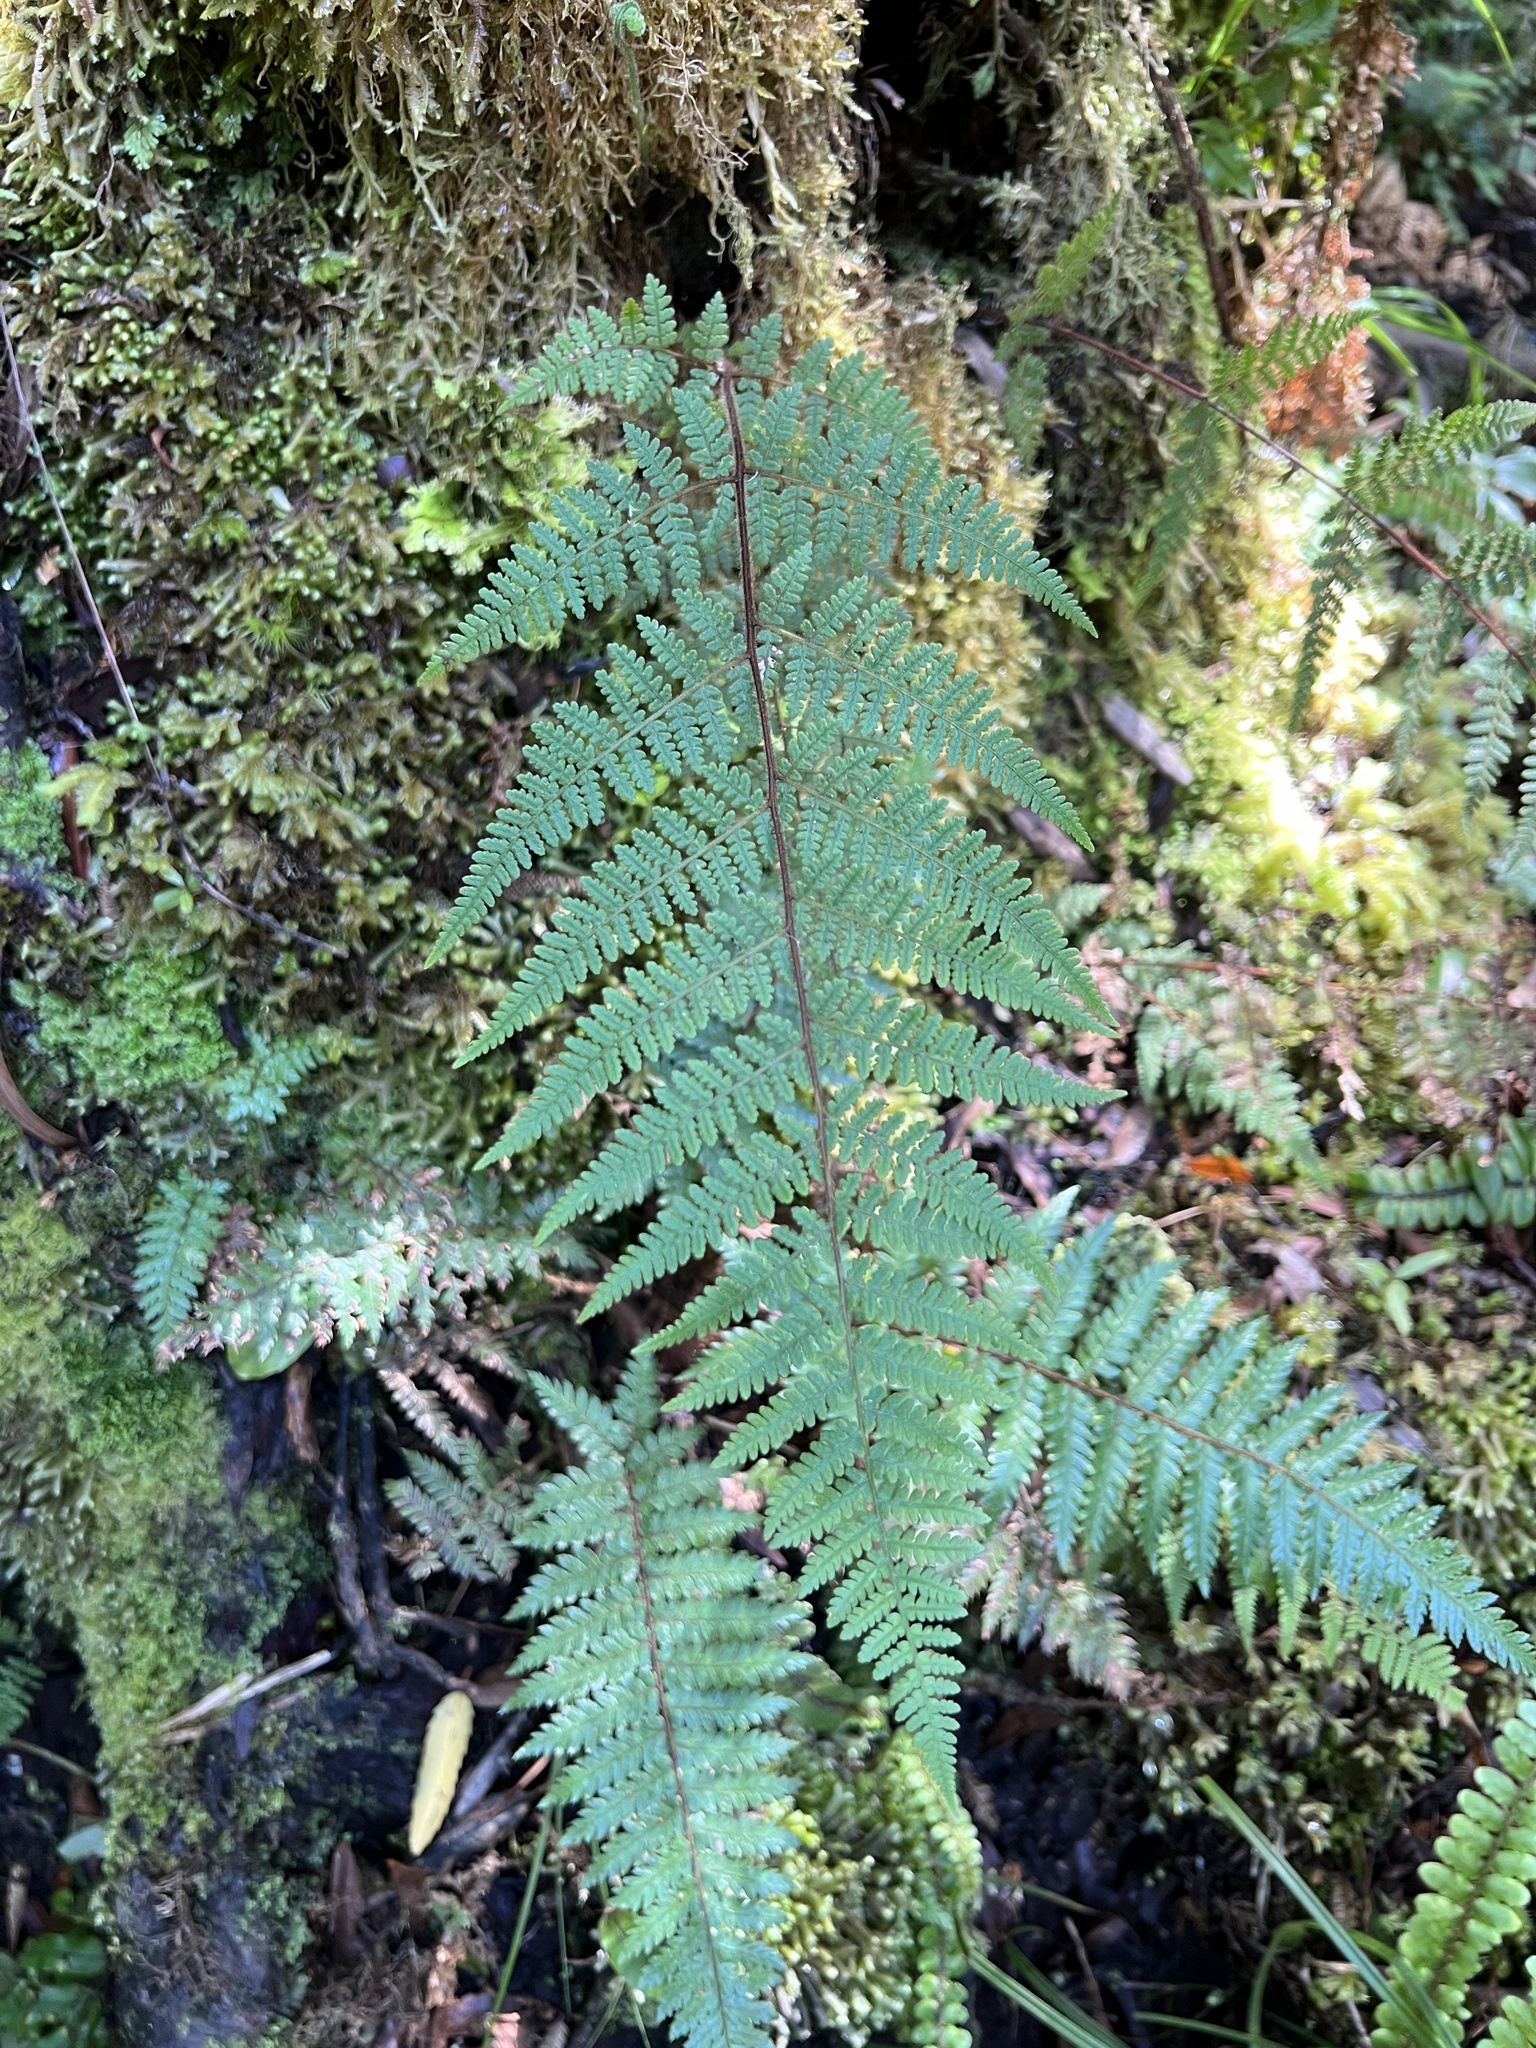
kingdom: Plantae
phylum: Tracheophyta
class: Polypodiopsida
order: Polypodiales
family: Dennstaedtiaceae
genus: Hypolepis
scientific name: Hypolepis rugosula
